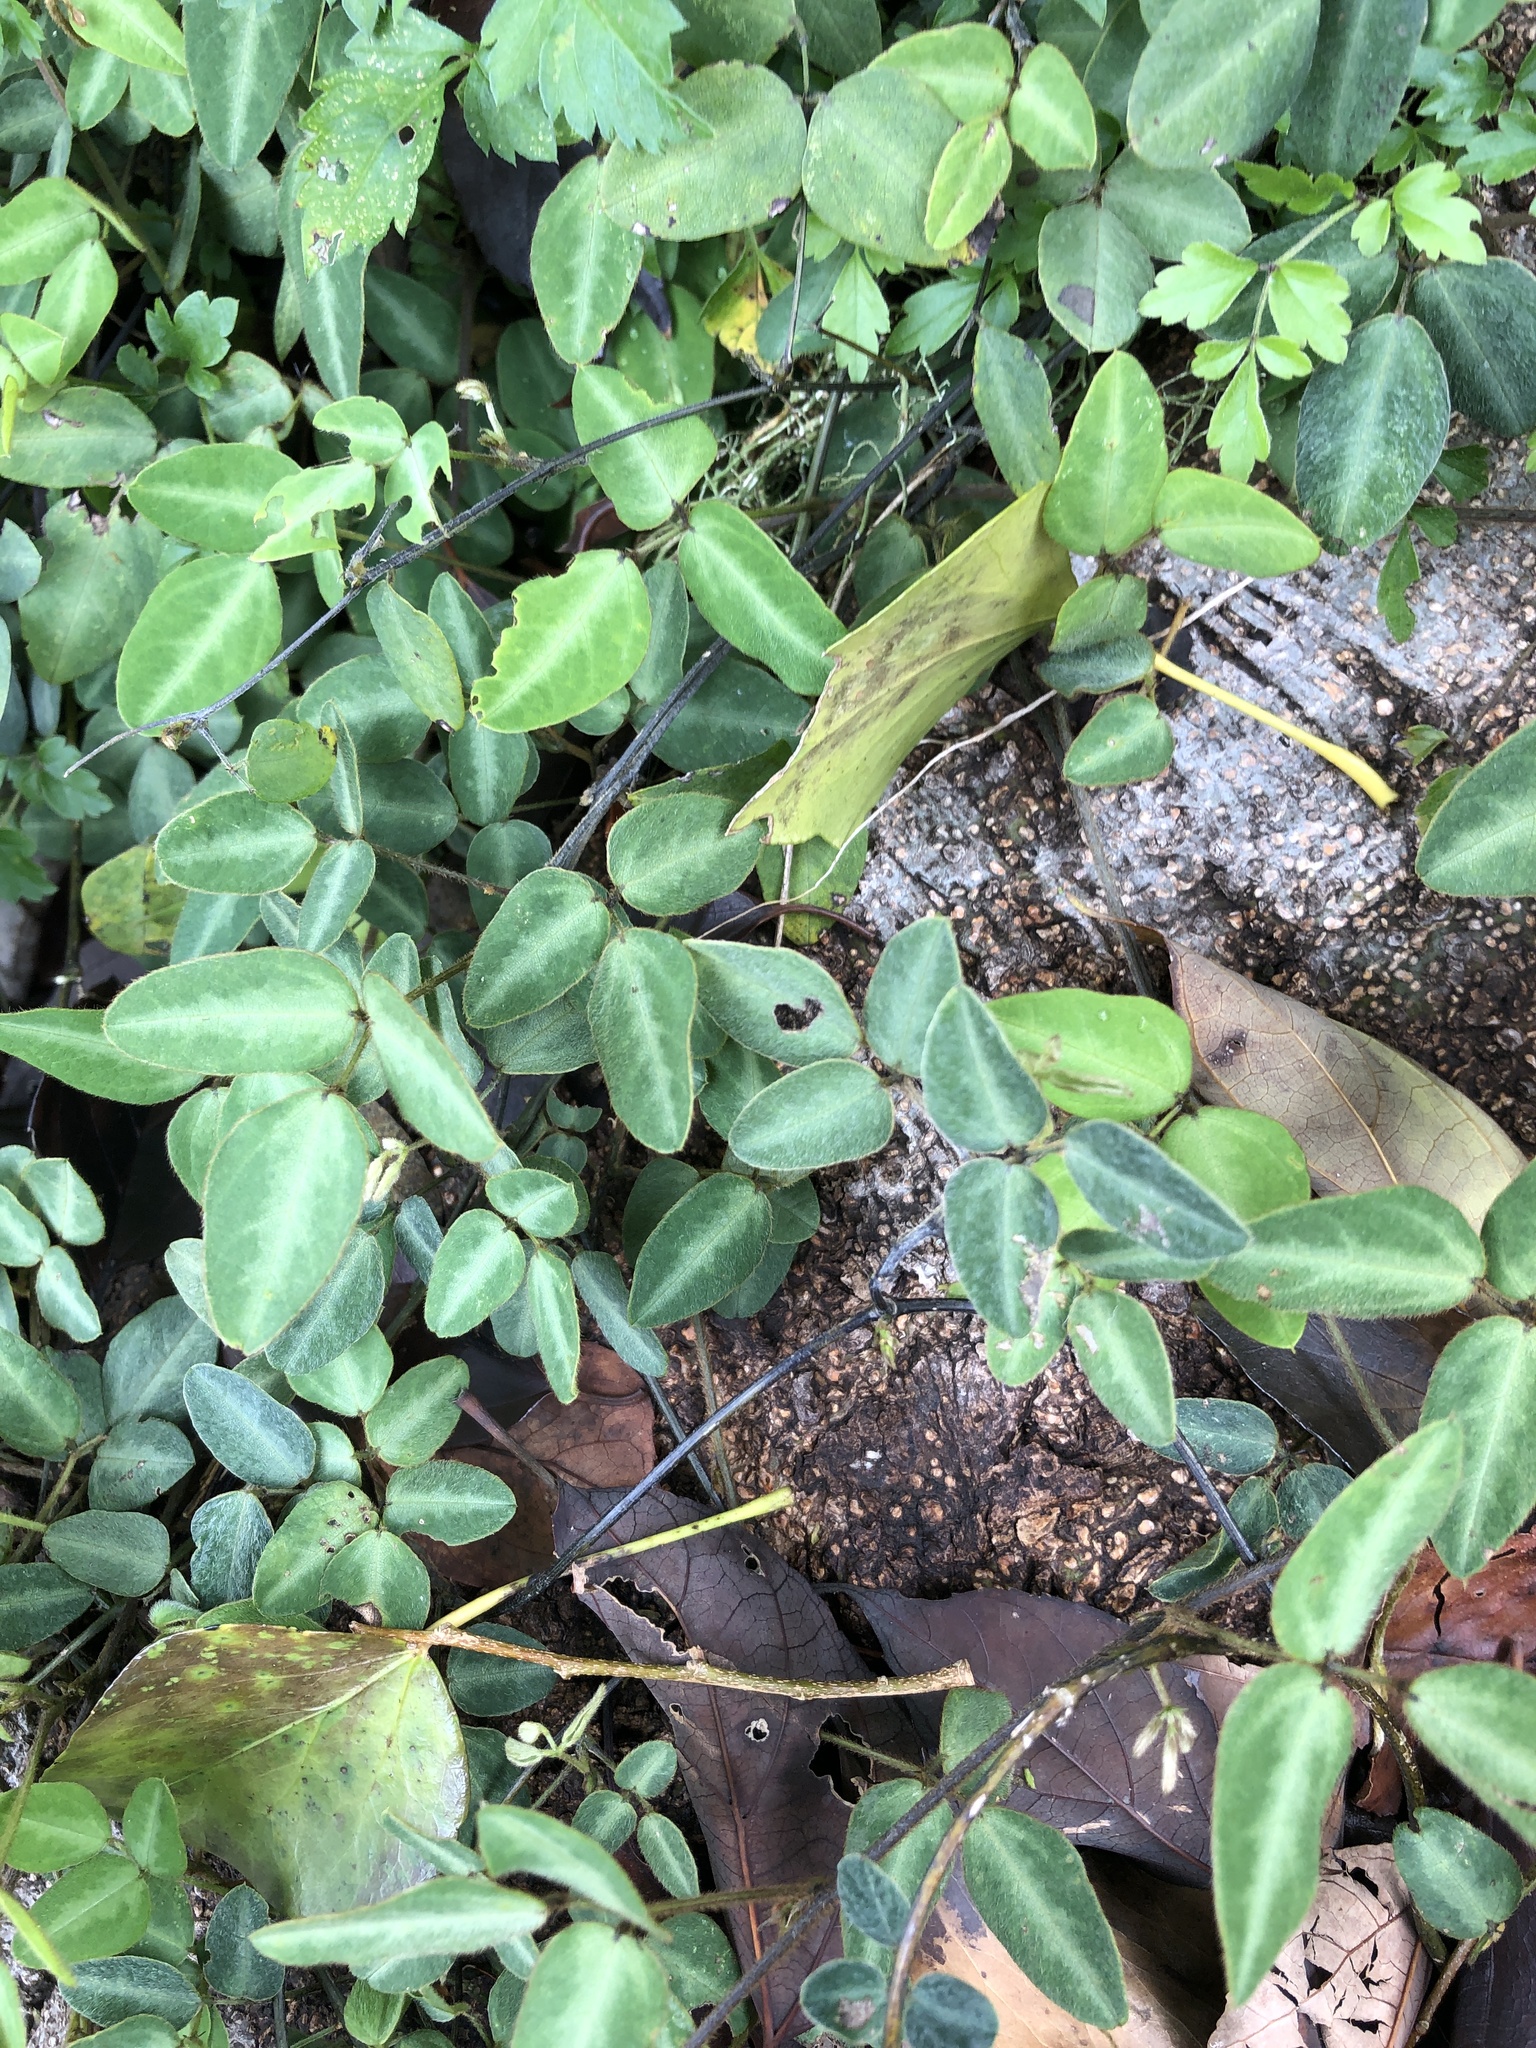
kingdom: Plantae
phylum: Tracheophyta
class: Magnoliopsida
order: Fabales
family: Fabaceae
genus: Desmodium
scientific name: Desmodium uncinatum
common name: Silverleaf desmodium
